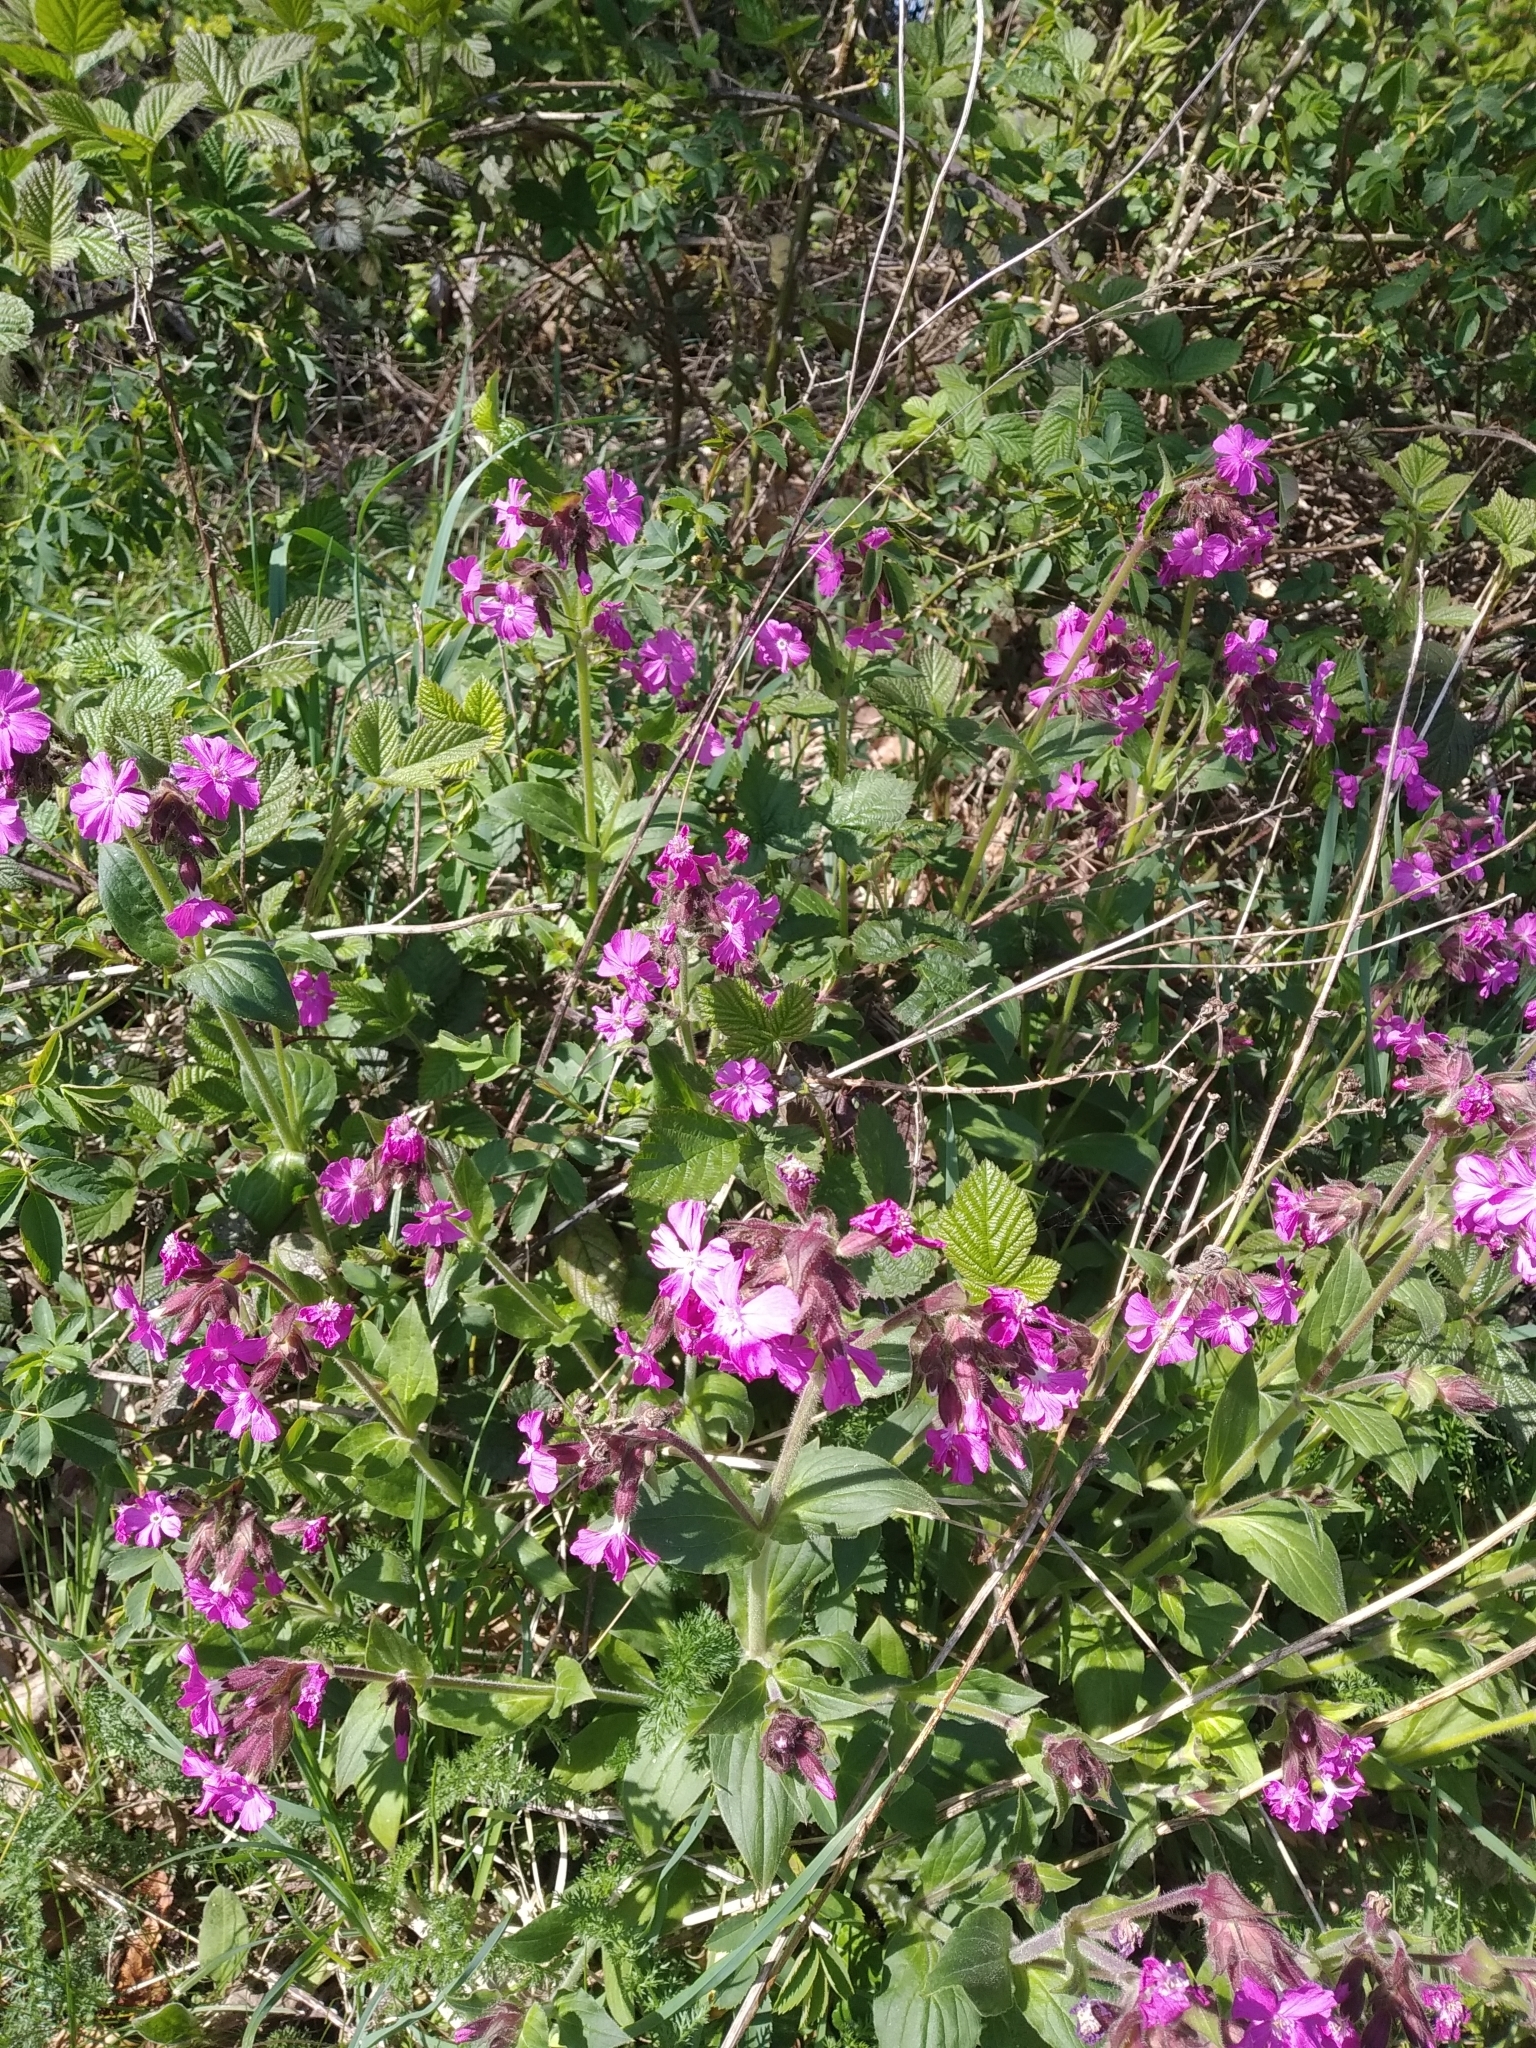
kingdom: Plantae
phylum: Tracheophyta
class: Magnoliopsida
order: Caryophyllales
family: Caryophyllaceae
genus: Silene
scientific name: Silene dioica
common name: Red campion
